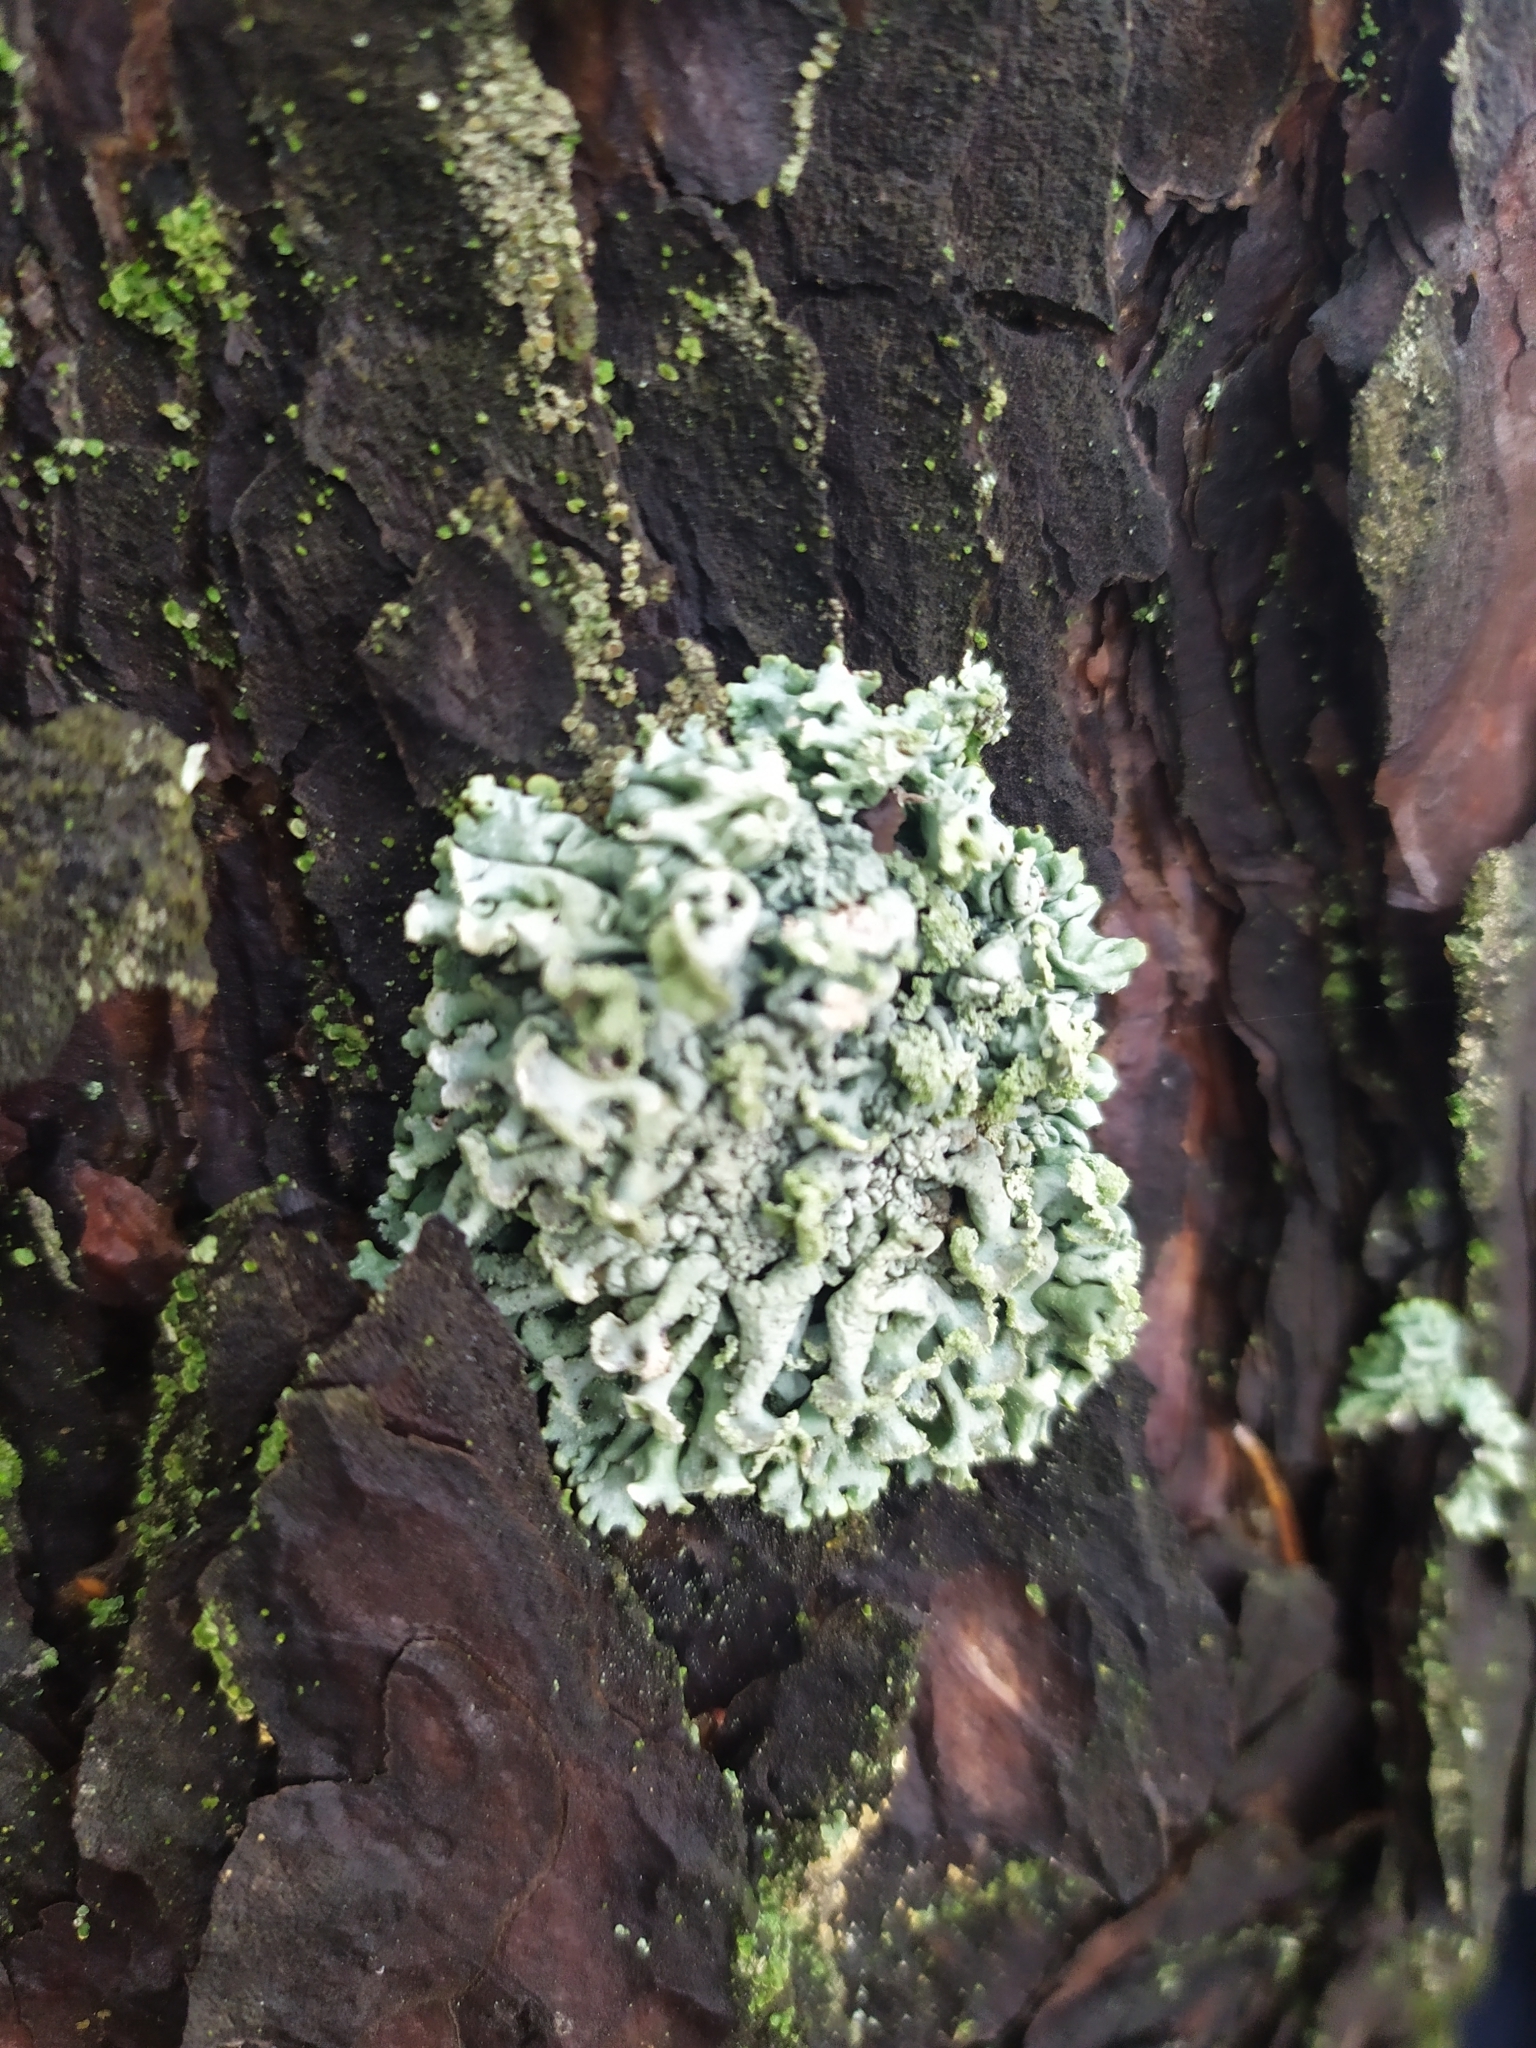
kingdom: Fungi
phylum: Ascomycota
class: Lecanoromycetes
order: Lecanorales
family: Parmeliaceae
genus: Hypogymnia
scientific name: Hypogymnia physodes
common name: Dark crottle
